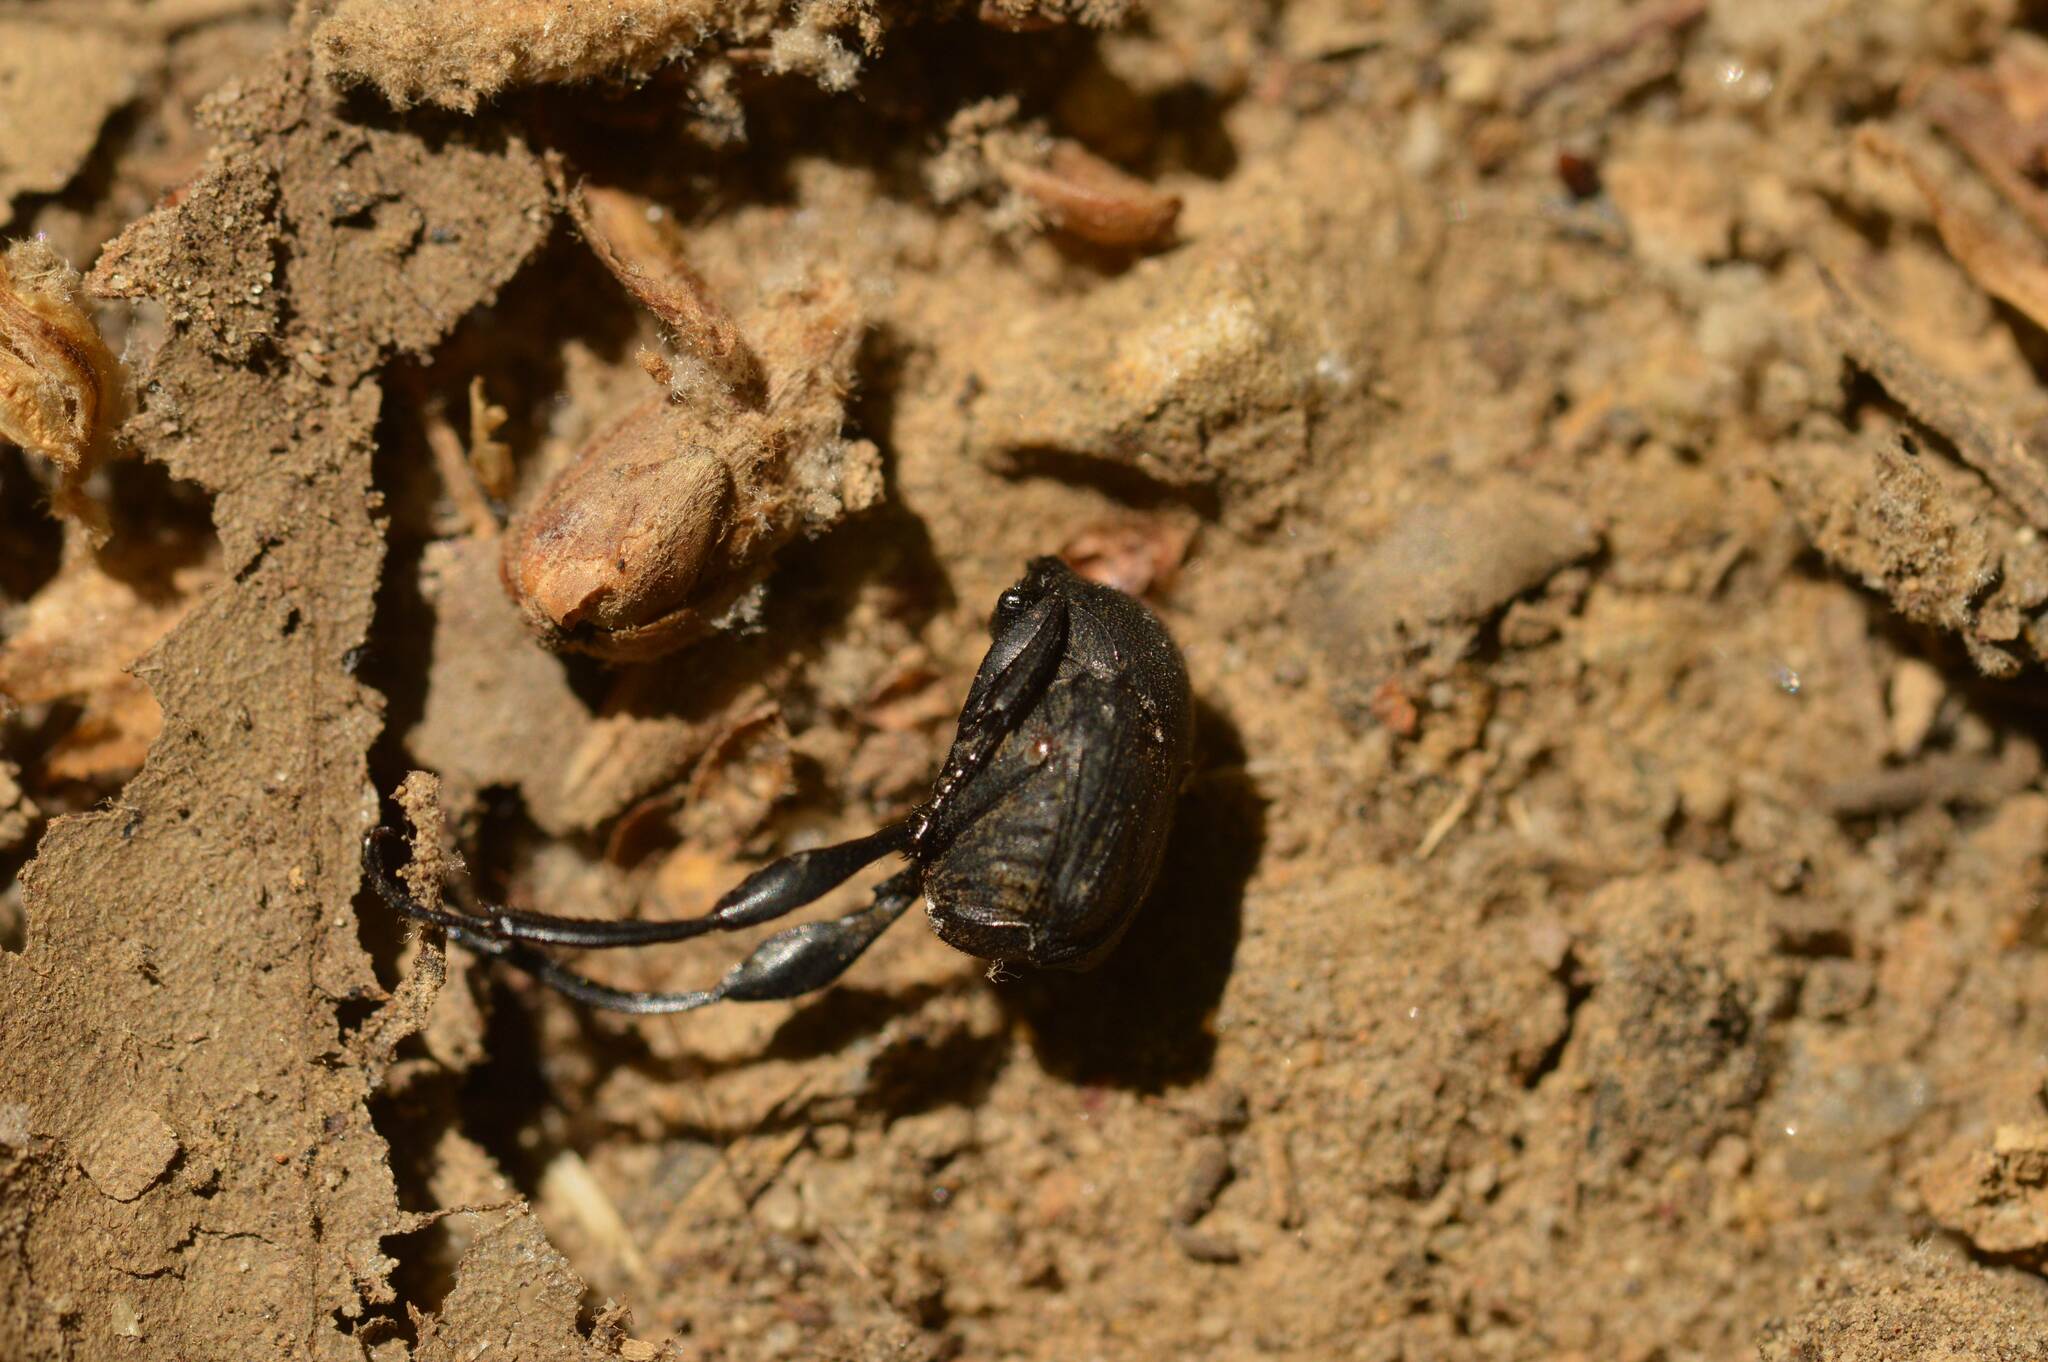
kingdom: Animalia
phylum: Arthropoda
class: Insecta
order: Coleoptera
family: Scarabaeidae
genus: Sisyphus
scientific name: Sisyphus schaefferi
